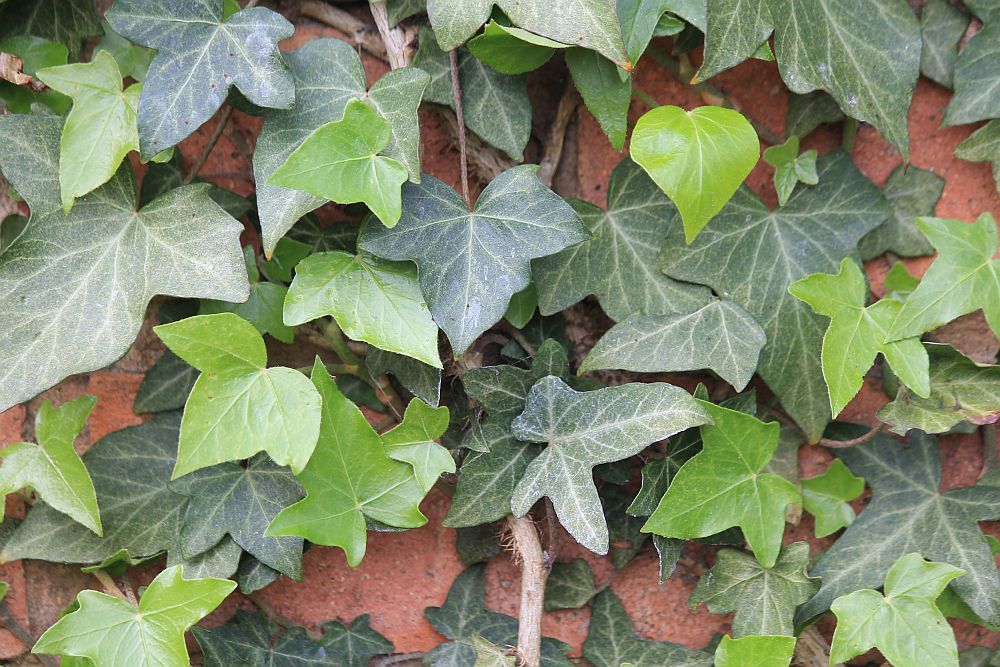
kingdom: Plantae
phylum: Tracheophyta
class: Magnoliopsida
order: Apiales
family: Araliaceae
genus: Hedera
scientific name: Hedera helix
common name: Ivy
